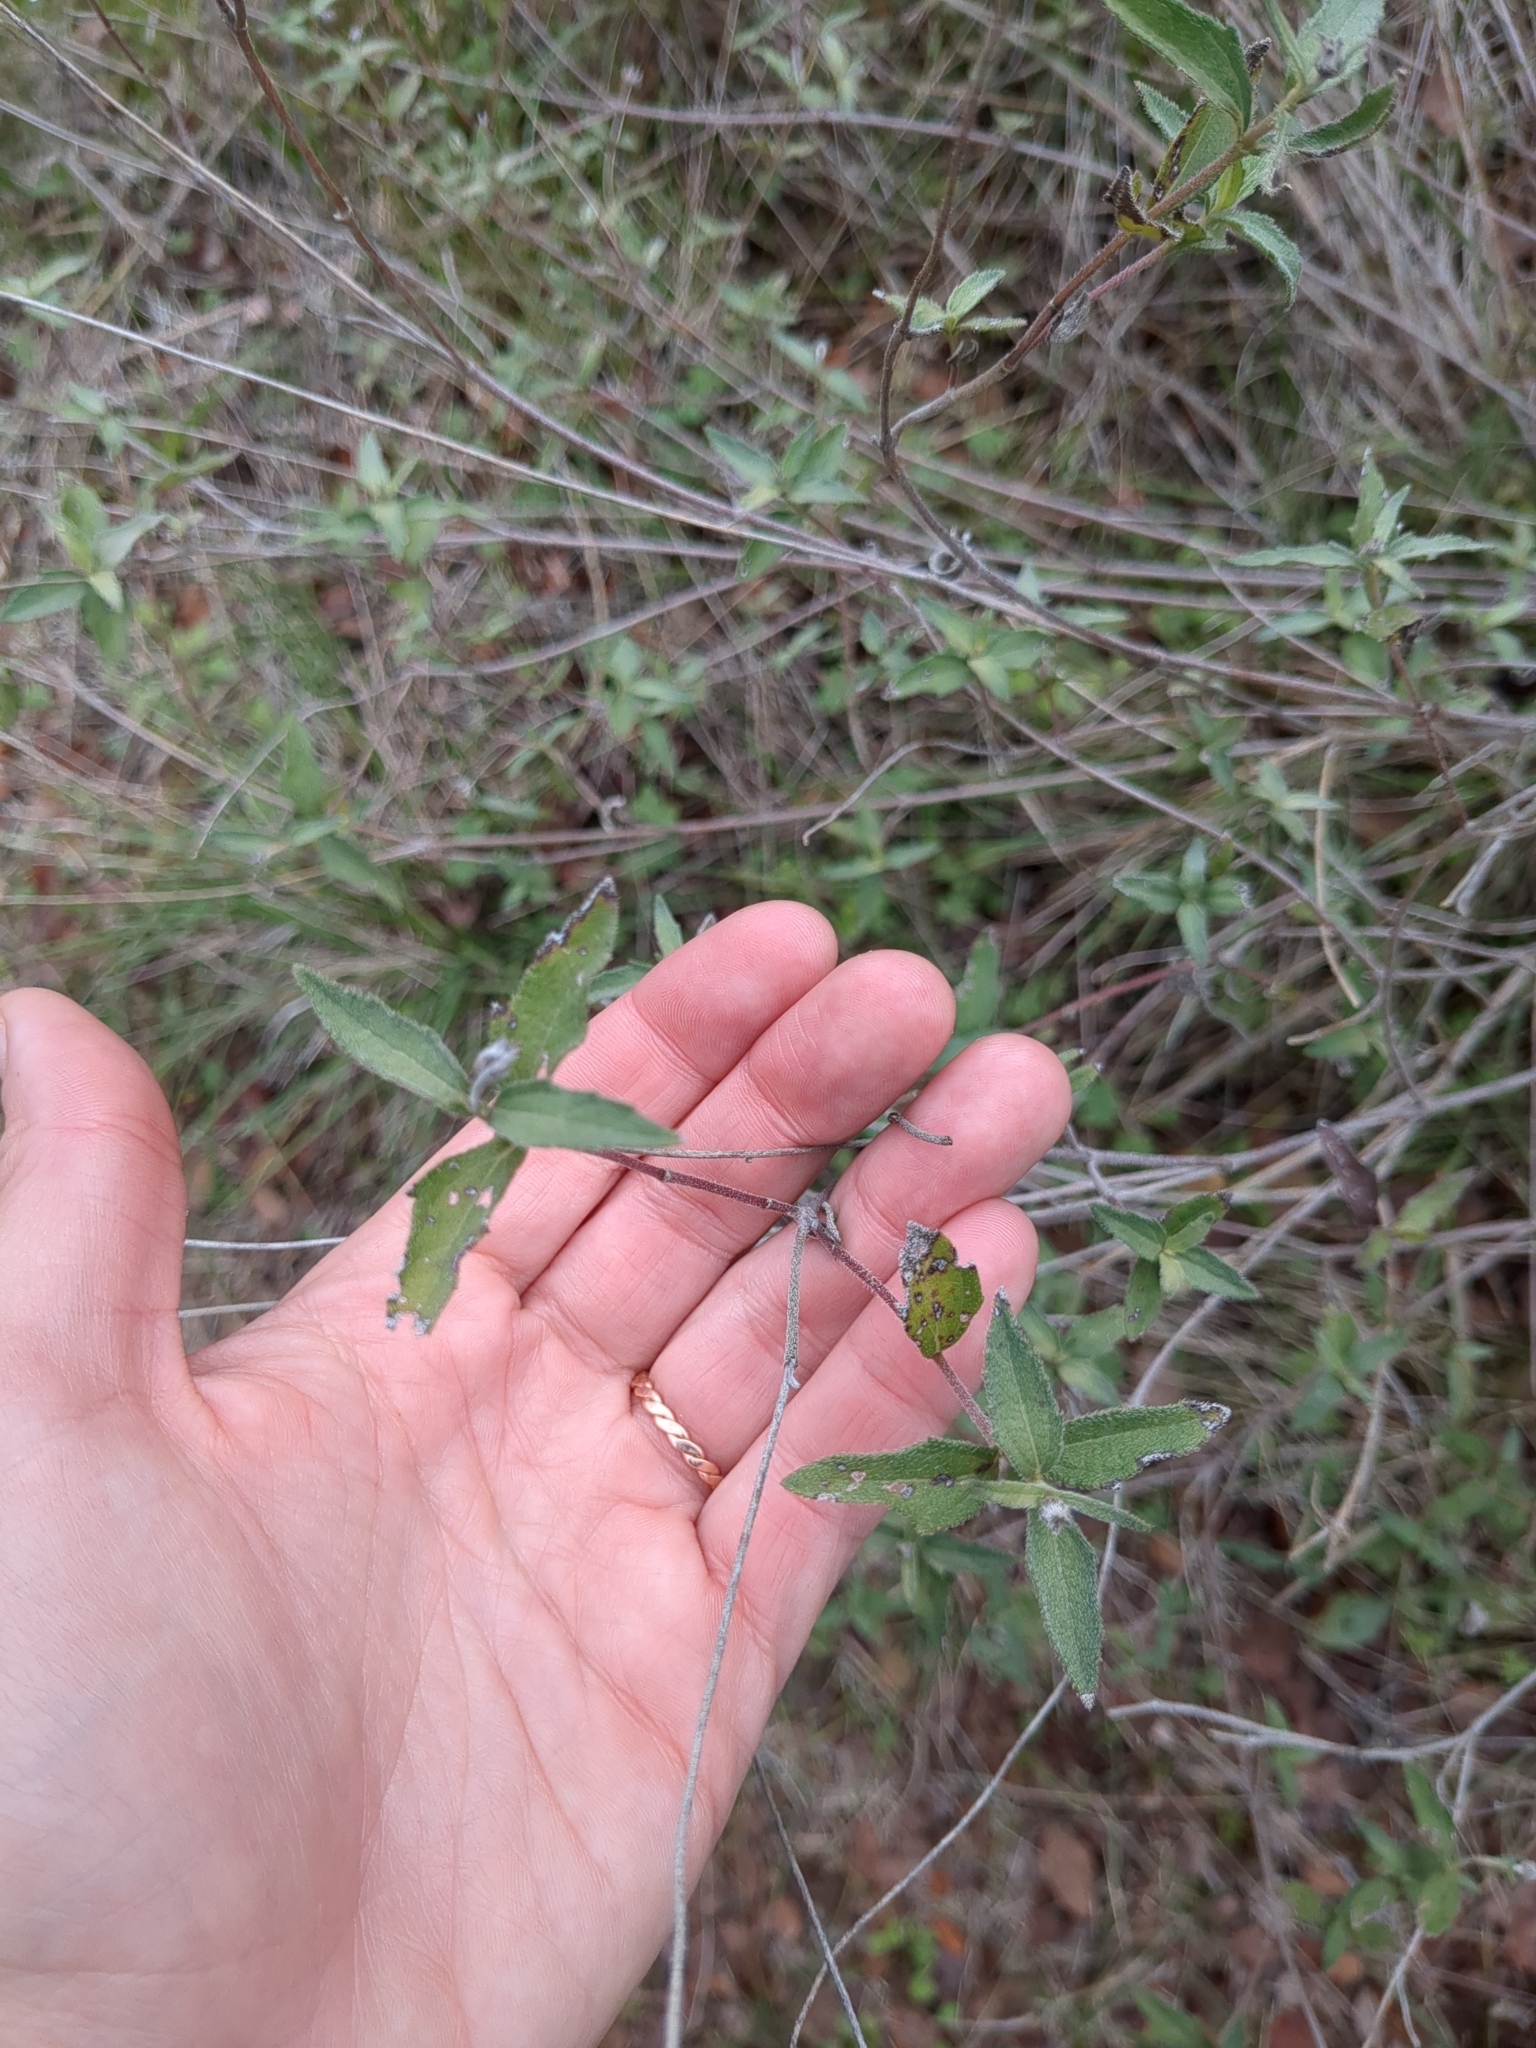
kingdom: Plantae
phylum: Tracheophyta
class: Magnoliopsida
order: Asterales
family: Asteraceae
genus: Wedelia
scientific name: Wedelia acapulcensis
